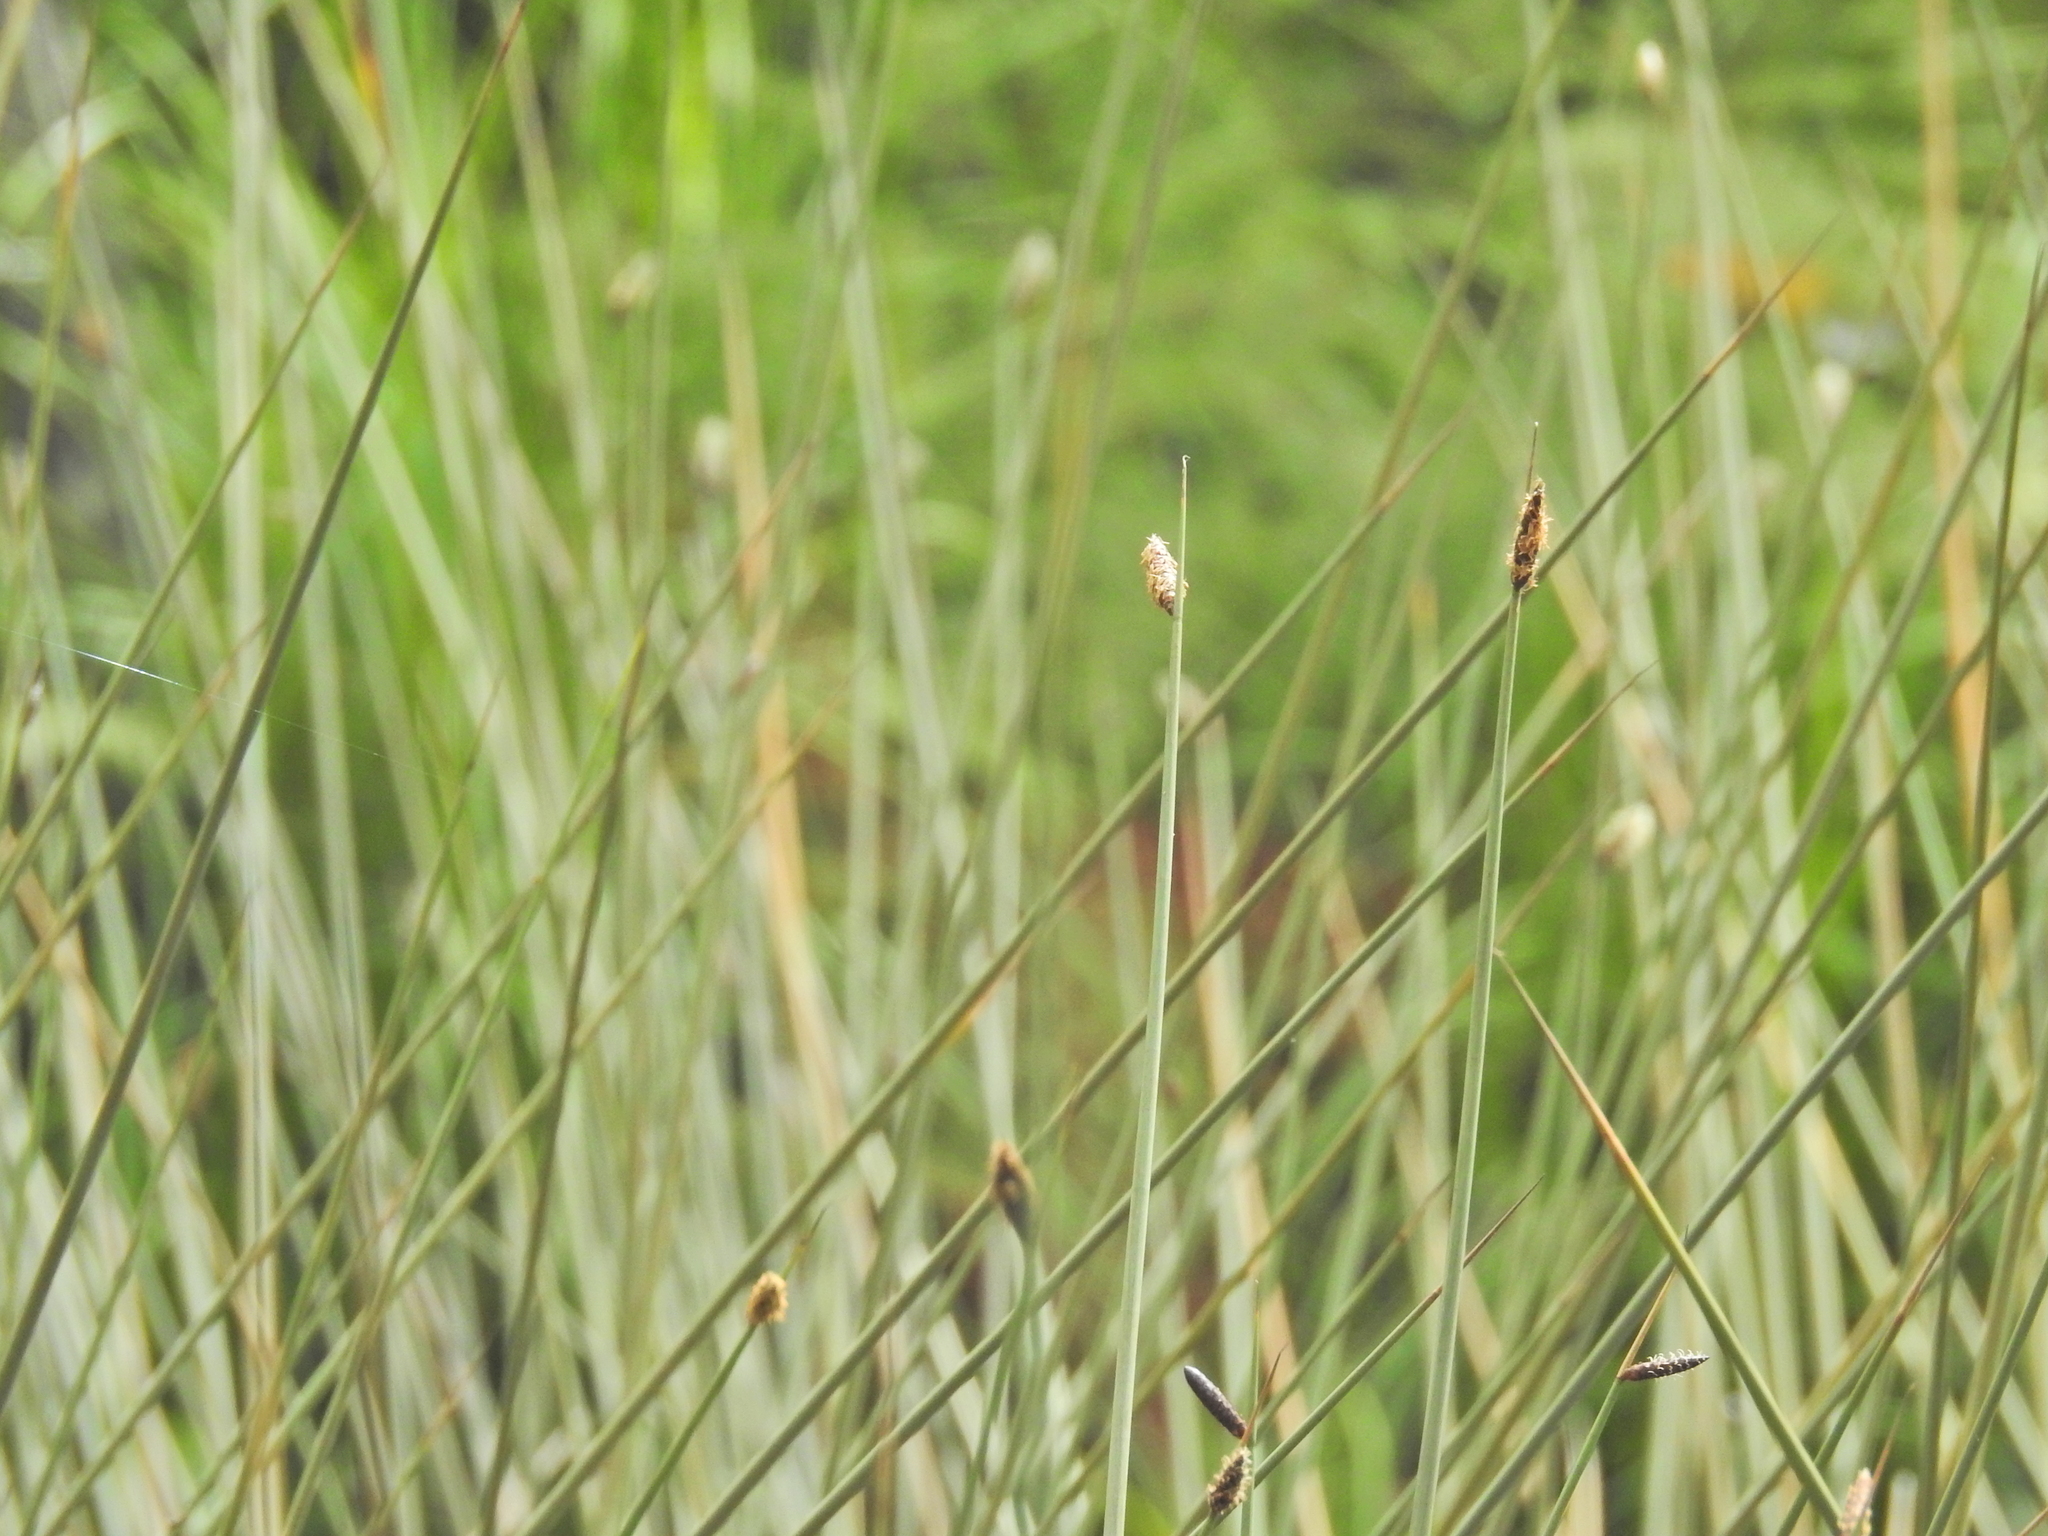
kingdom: Plantae
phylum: Tracheophyta
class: Liliopsida
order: Poales
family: Cyperaceae
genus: Lepironia
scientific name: Lepironia articulata
